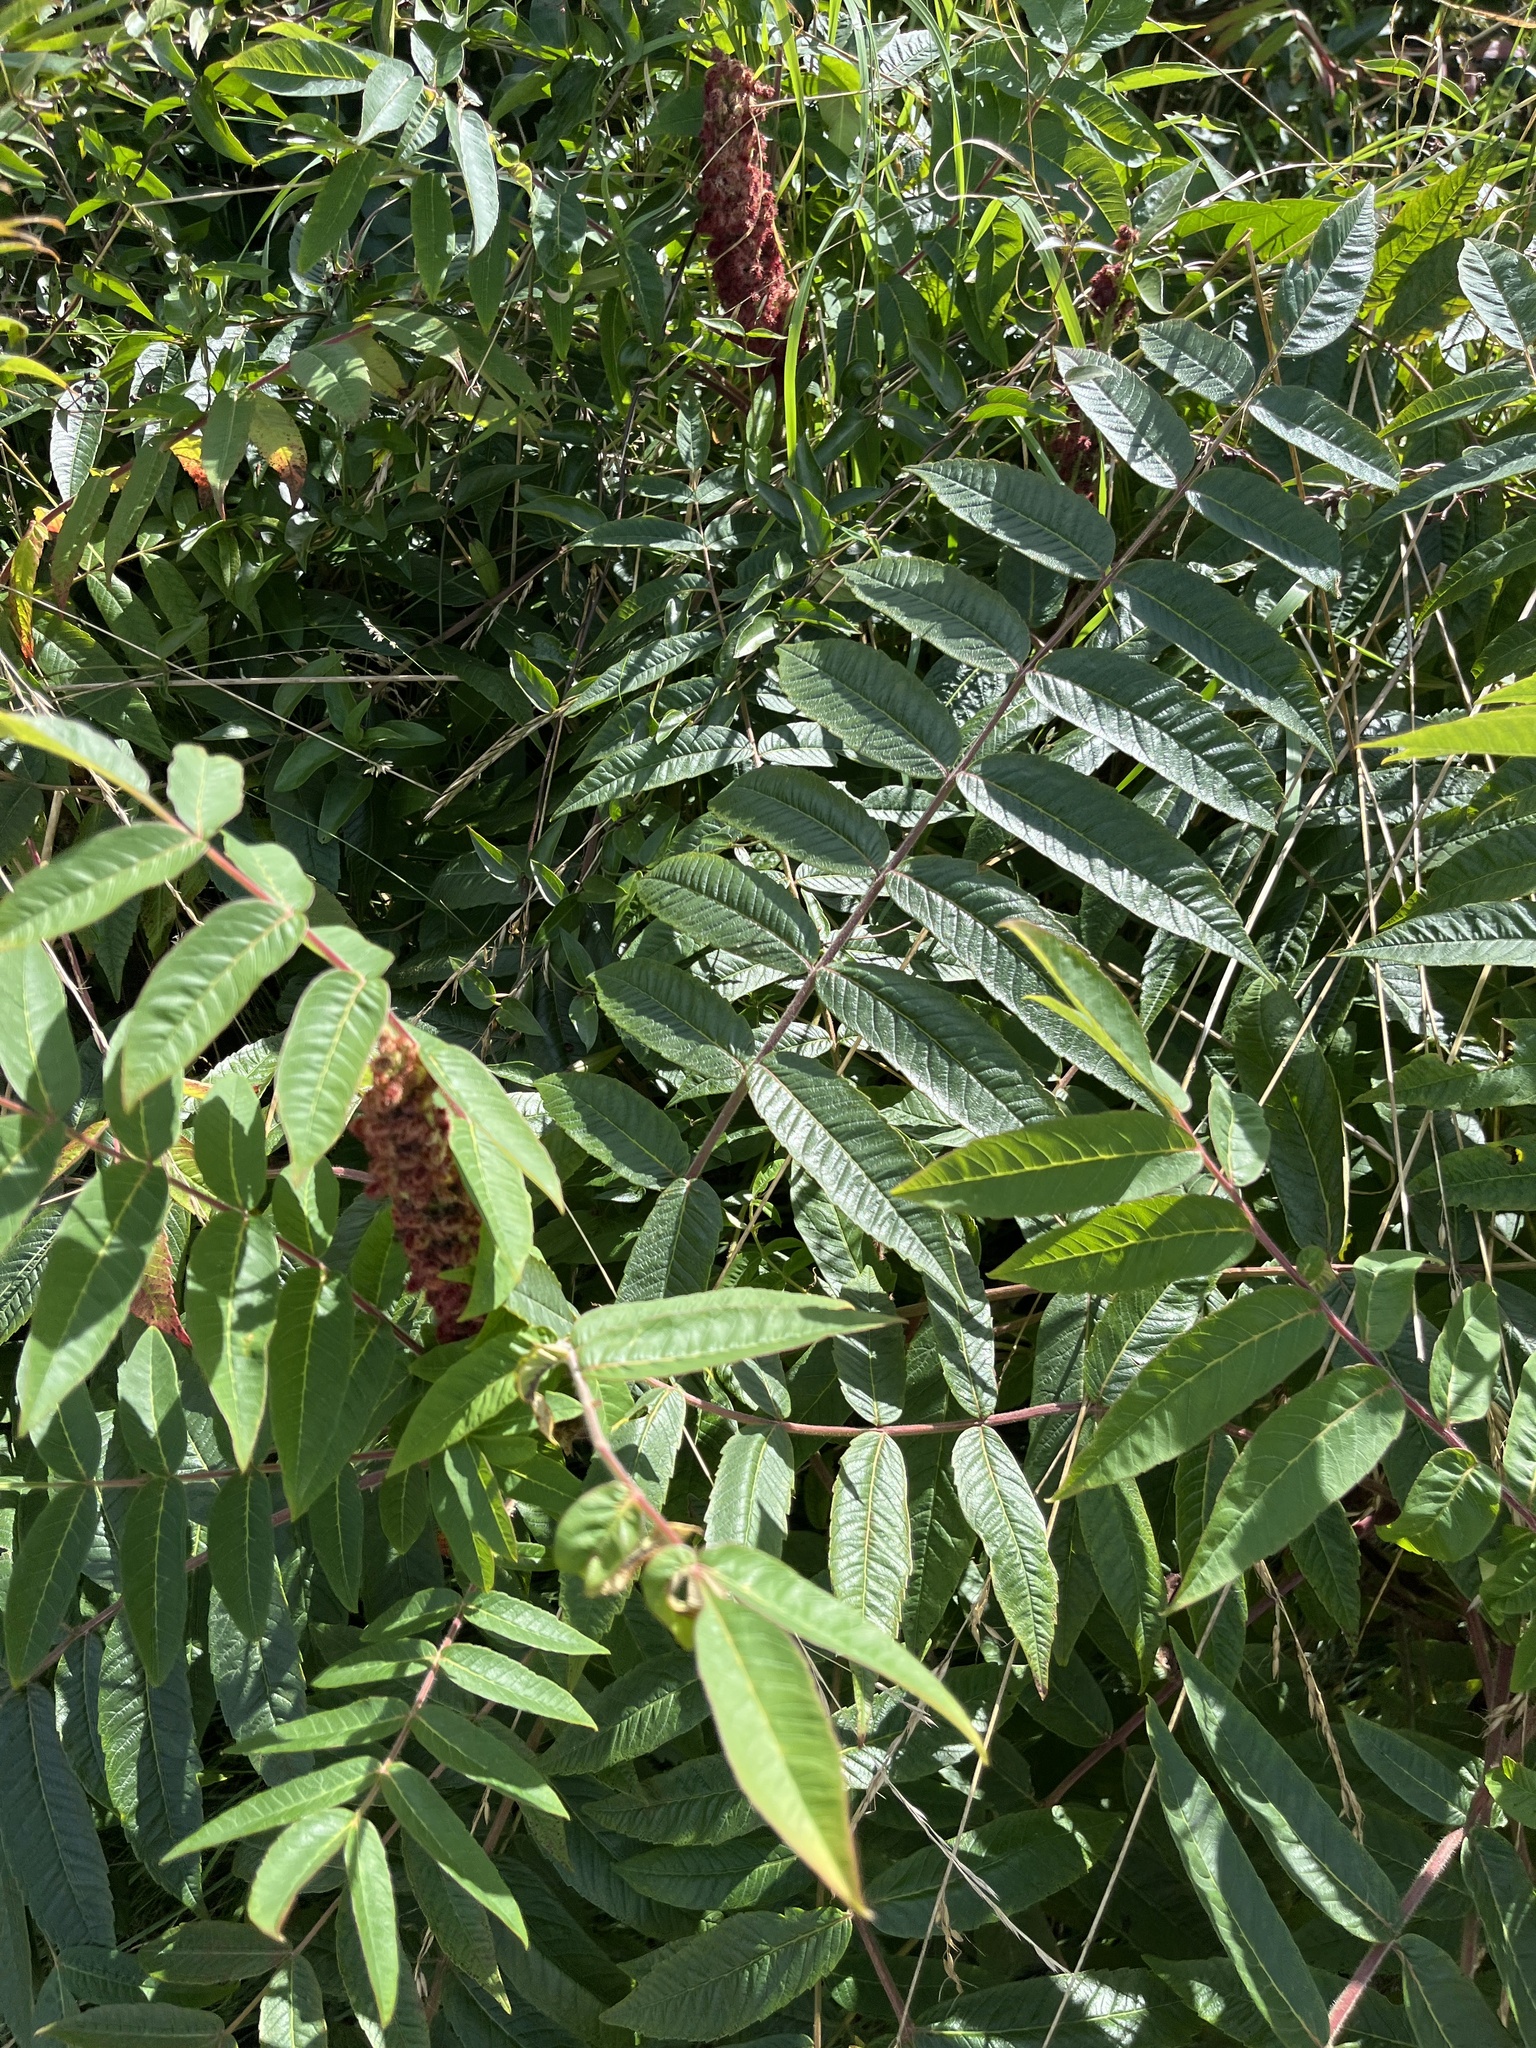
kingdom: Plantae
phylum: Tracheophyta
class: Magnoliopsida
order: Sapindales
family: Anacardiaceae
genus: Rhus
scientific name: Rhus typhina
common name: Staghorn sumac
